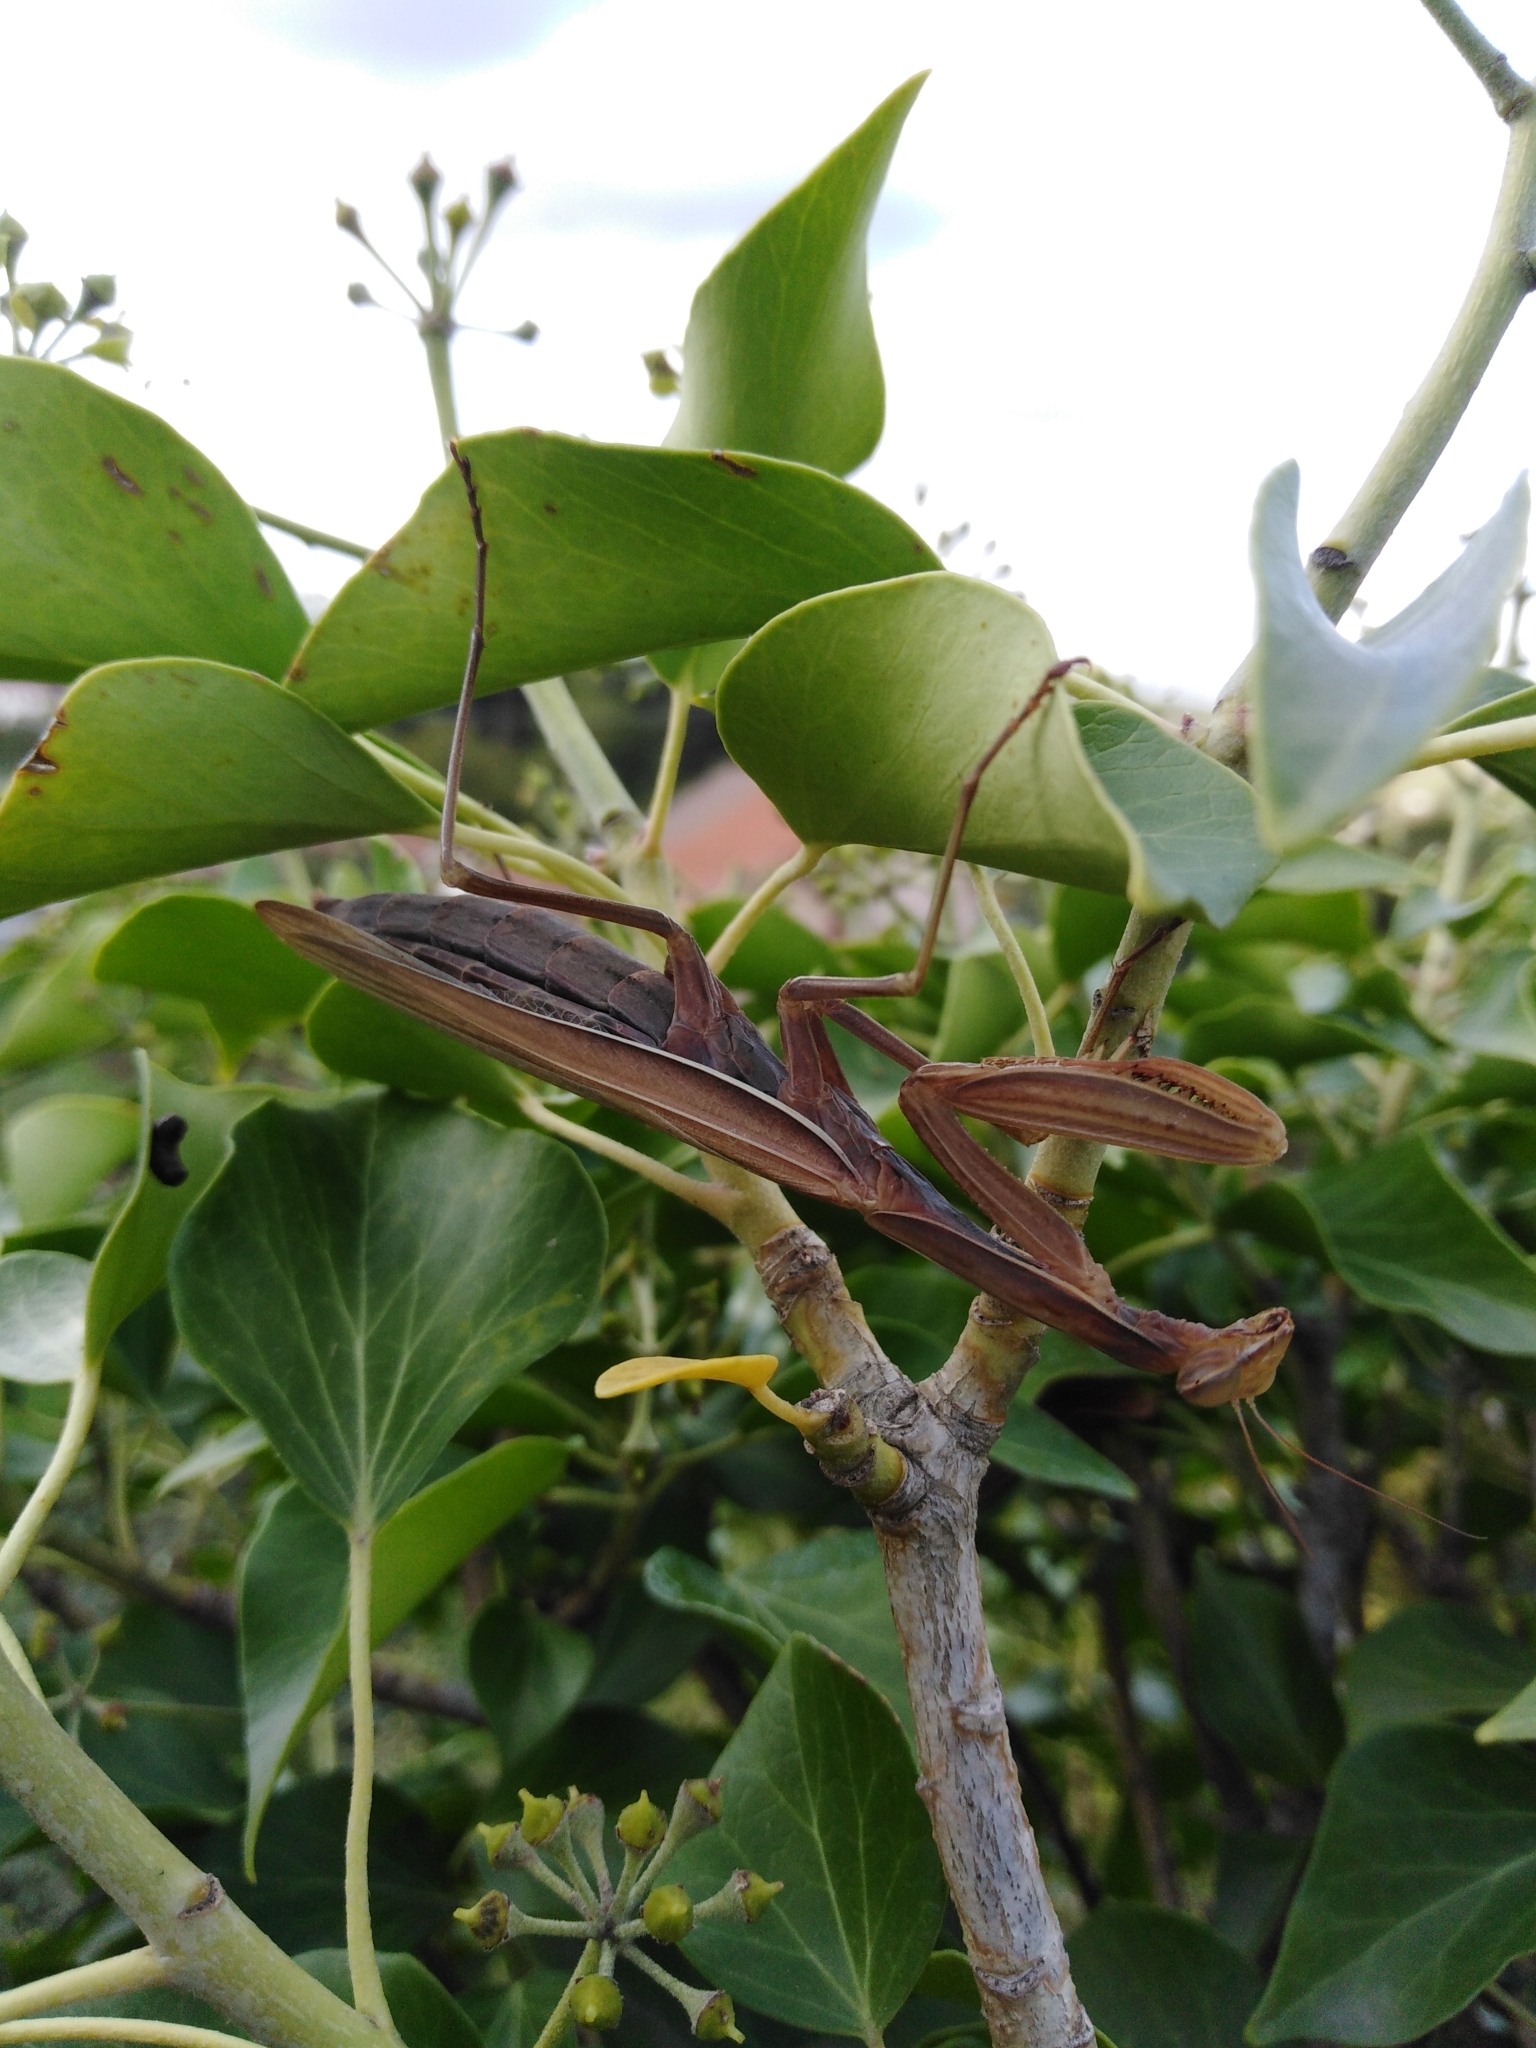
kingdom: Animalia
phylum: Arthropoda
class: Insecta
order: Mantodea
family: Mantidae
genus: Mantis
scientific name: Mantis religiosa
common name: Praying mantis
